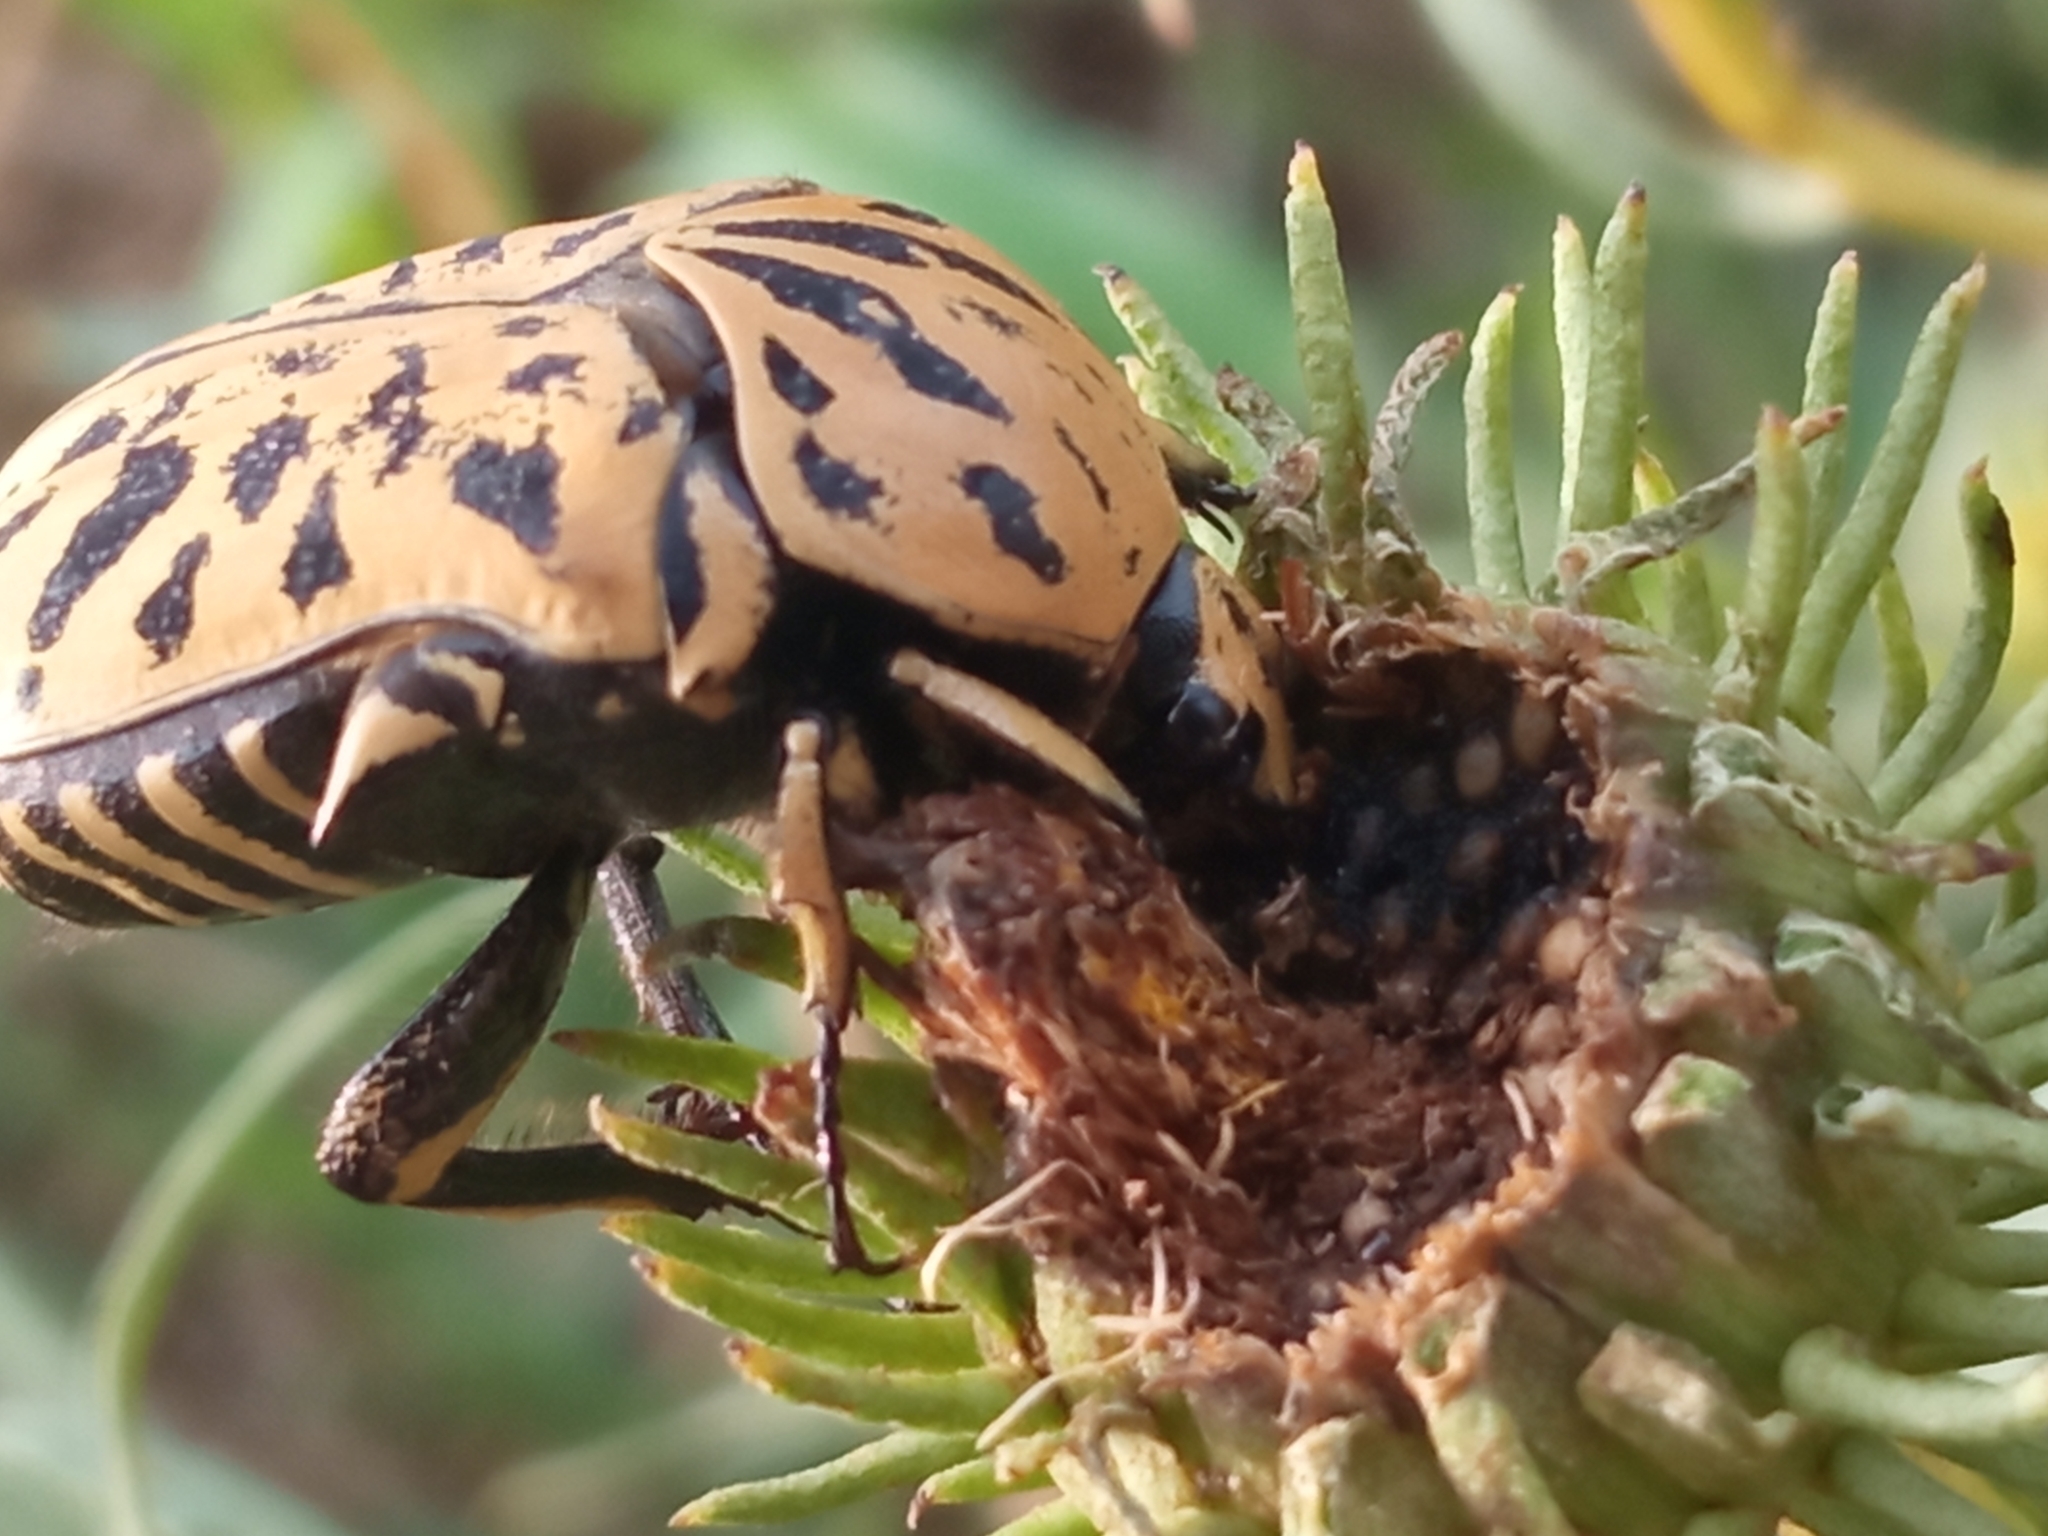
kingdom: Animalia
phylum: Arthropoda
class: Insecta
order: Coleoptera
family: Scarabaeidae
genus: Marmarina
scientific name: Marmarina tigrina
